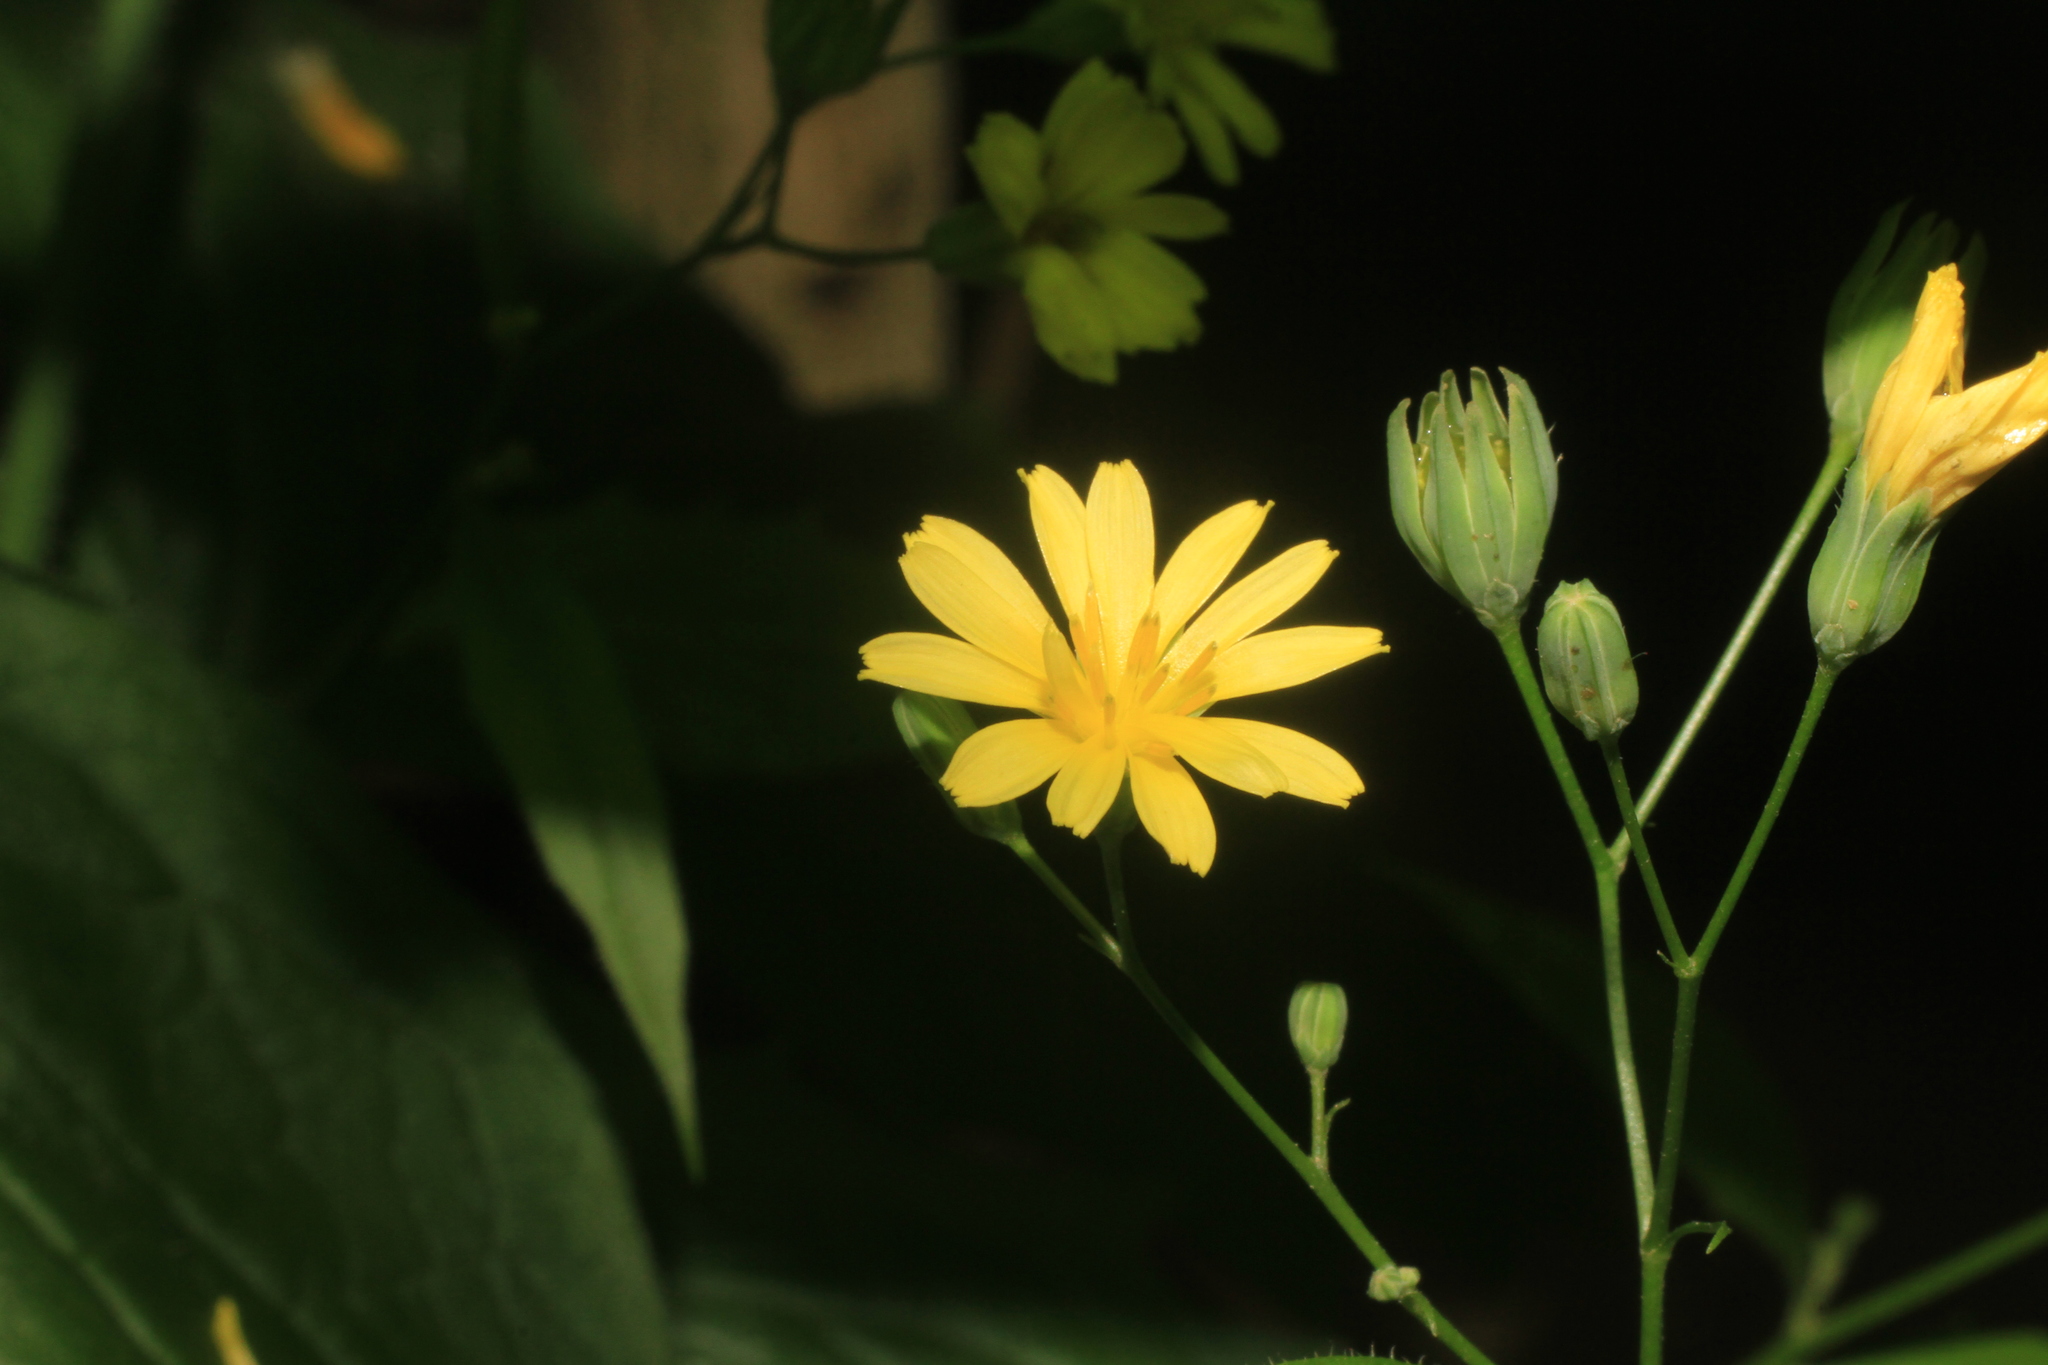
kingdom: Plantae
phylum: Tracheophyta
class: Magnoliopsida
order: Asterales
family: Asteraceae
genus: Lapsana
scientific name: Lapsana communis
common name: Nipplewort
